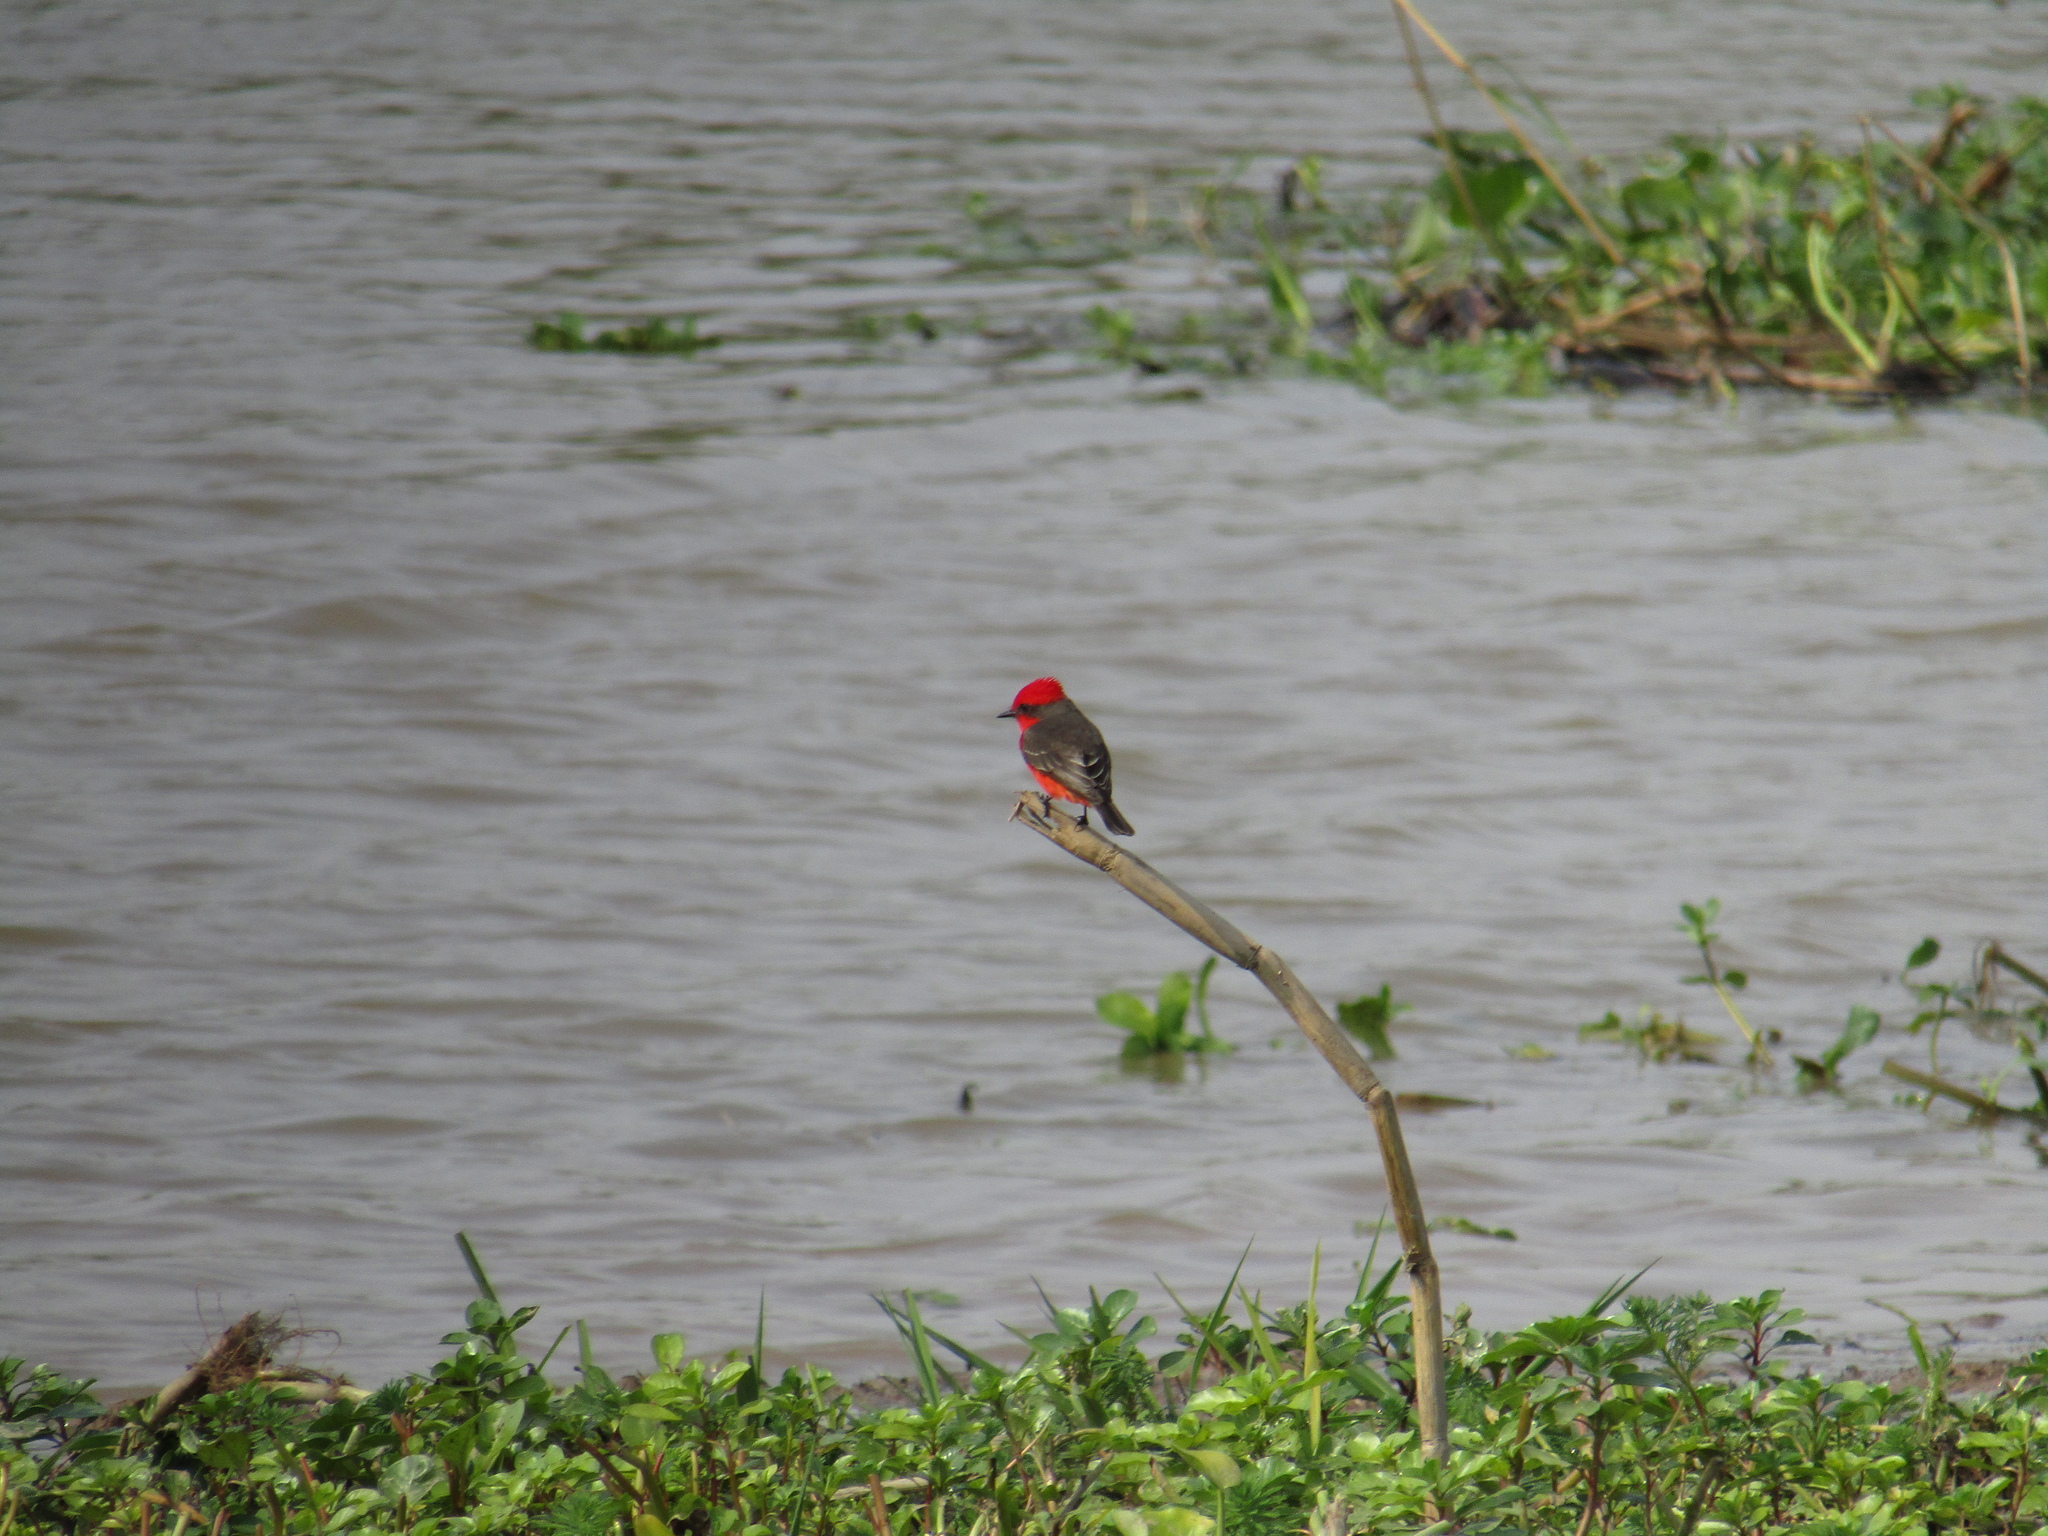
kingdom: Animalia
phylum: Chordata
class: Aves
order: Passeriformes
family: Tyrannidae
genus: Pyrocephalus
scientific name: Pyrocephalus rubinus
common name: Vermilion flycatcher
